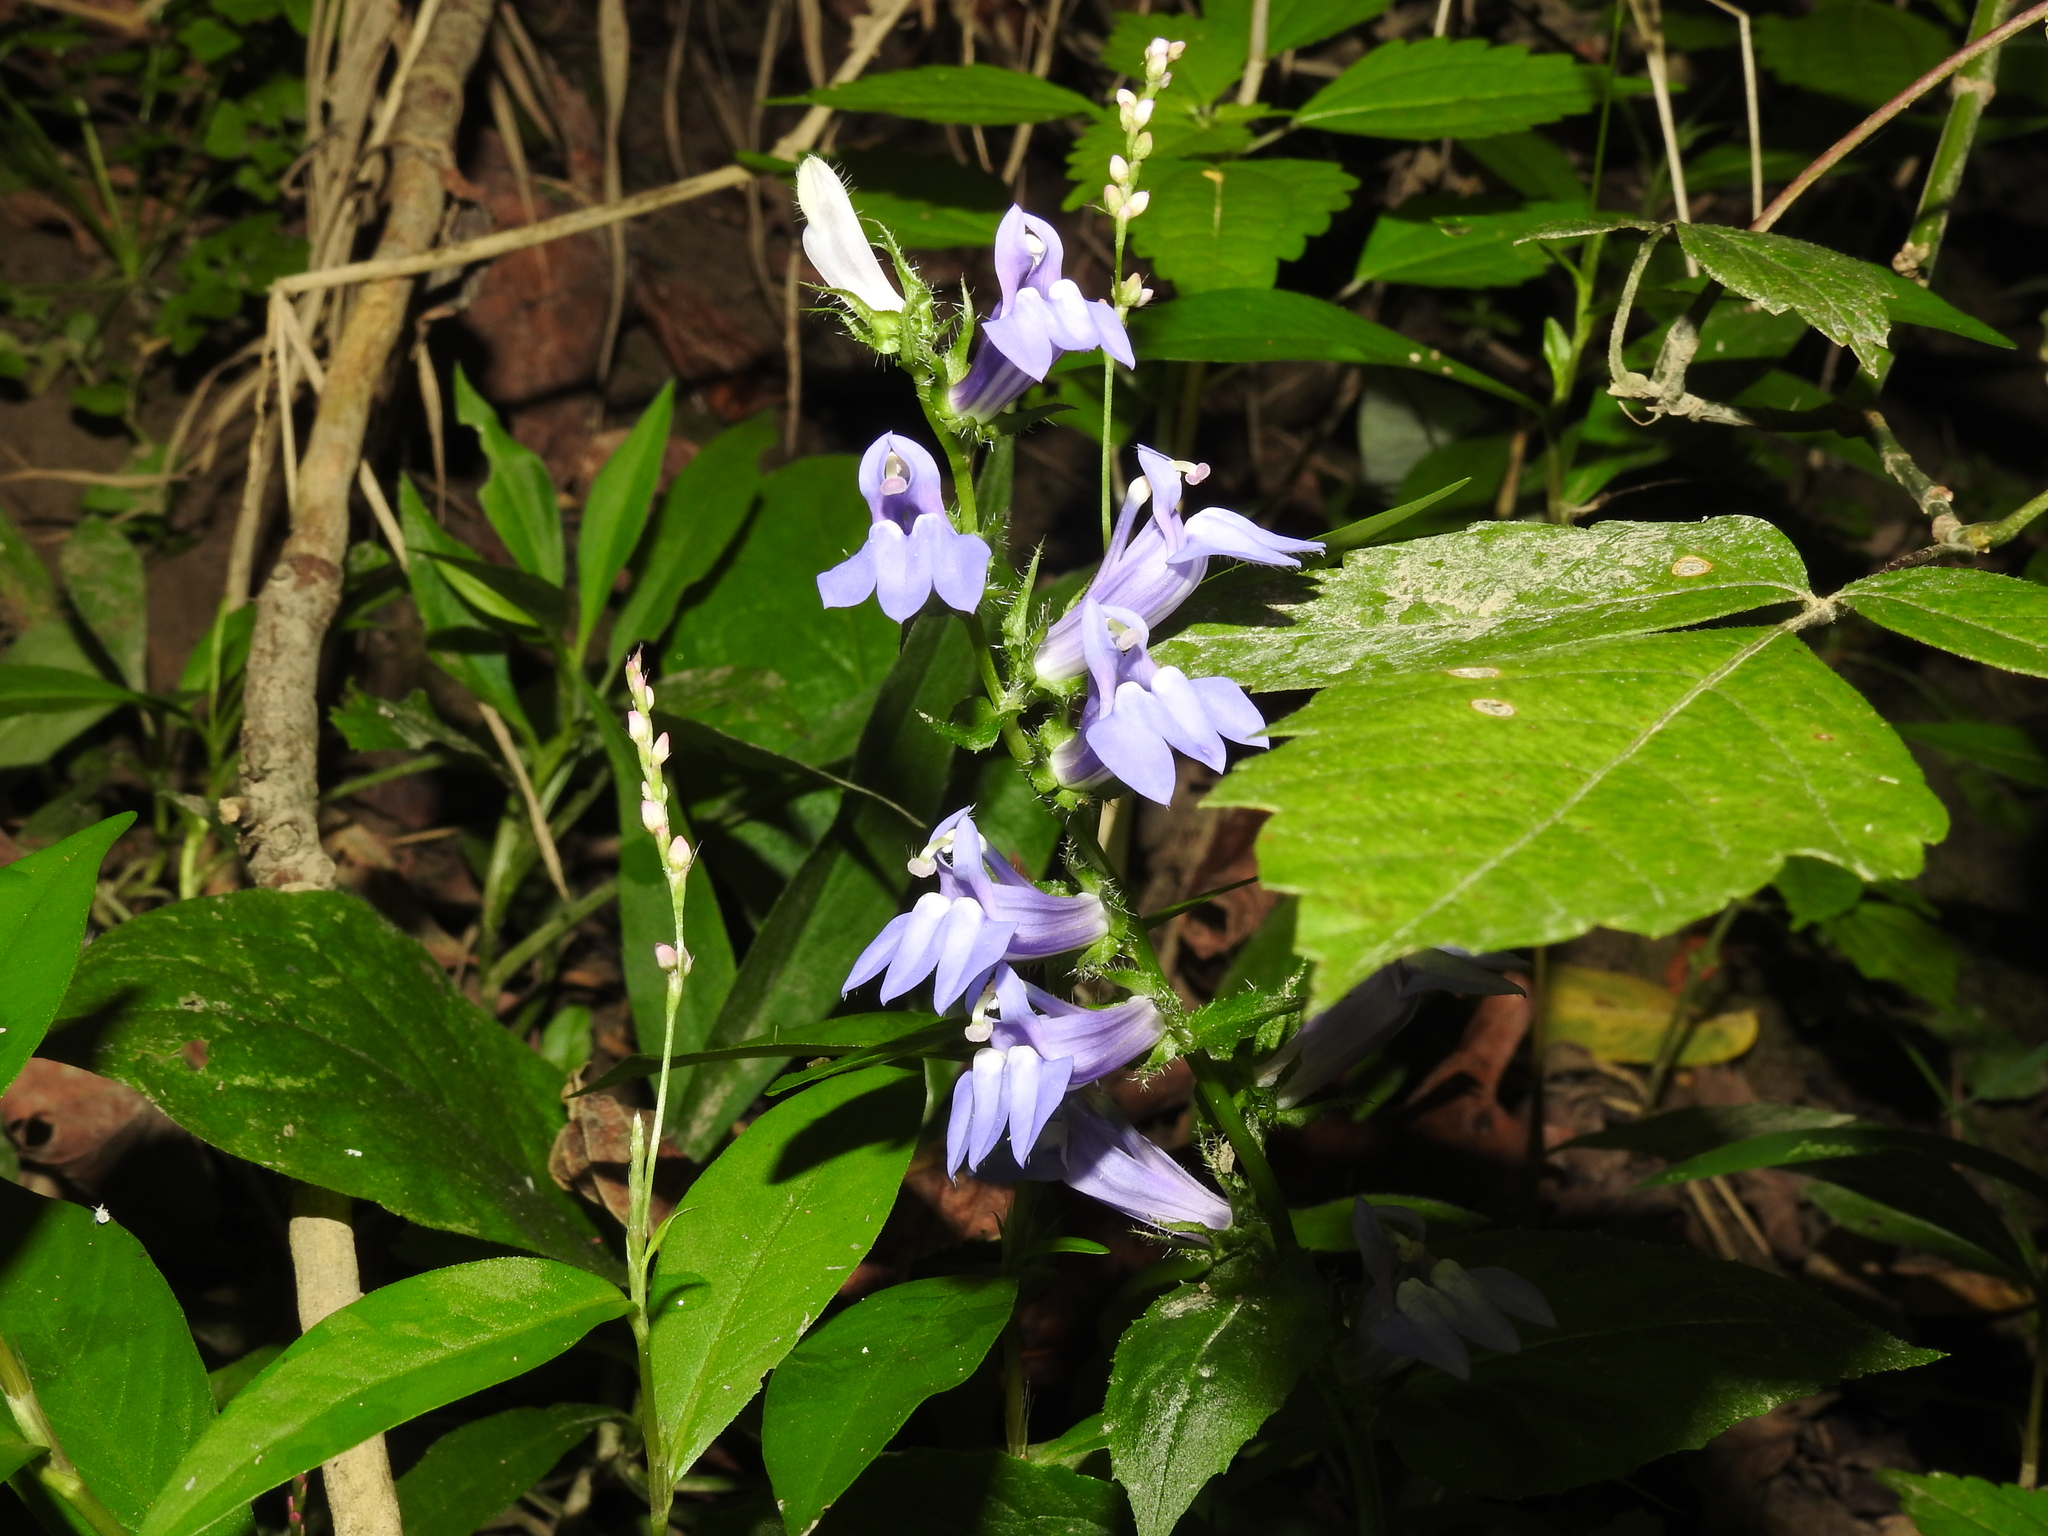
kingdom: Plantae
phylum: Tracheophyta
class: Magnoliopsida
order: Asterales
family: Campanulaceae
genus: Lobelia
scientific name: Lobelia siphilitica
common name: Great lobelia
